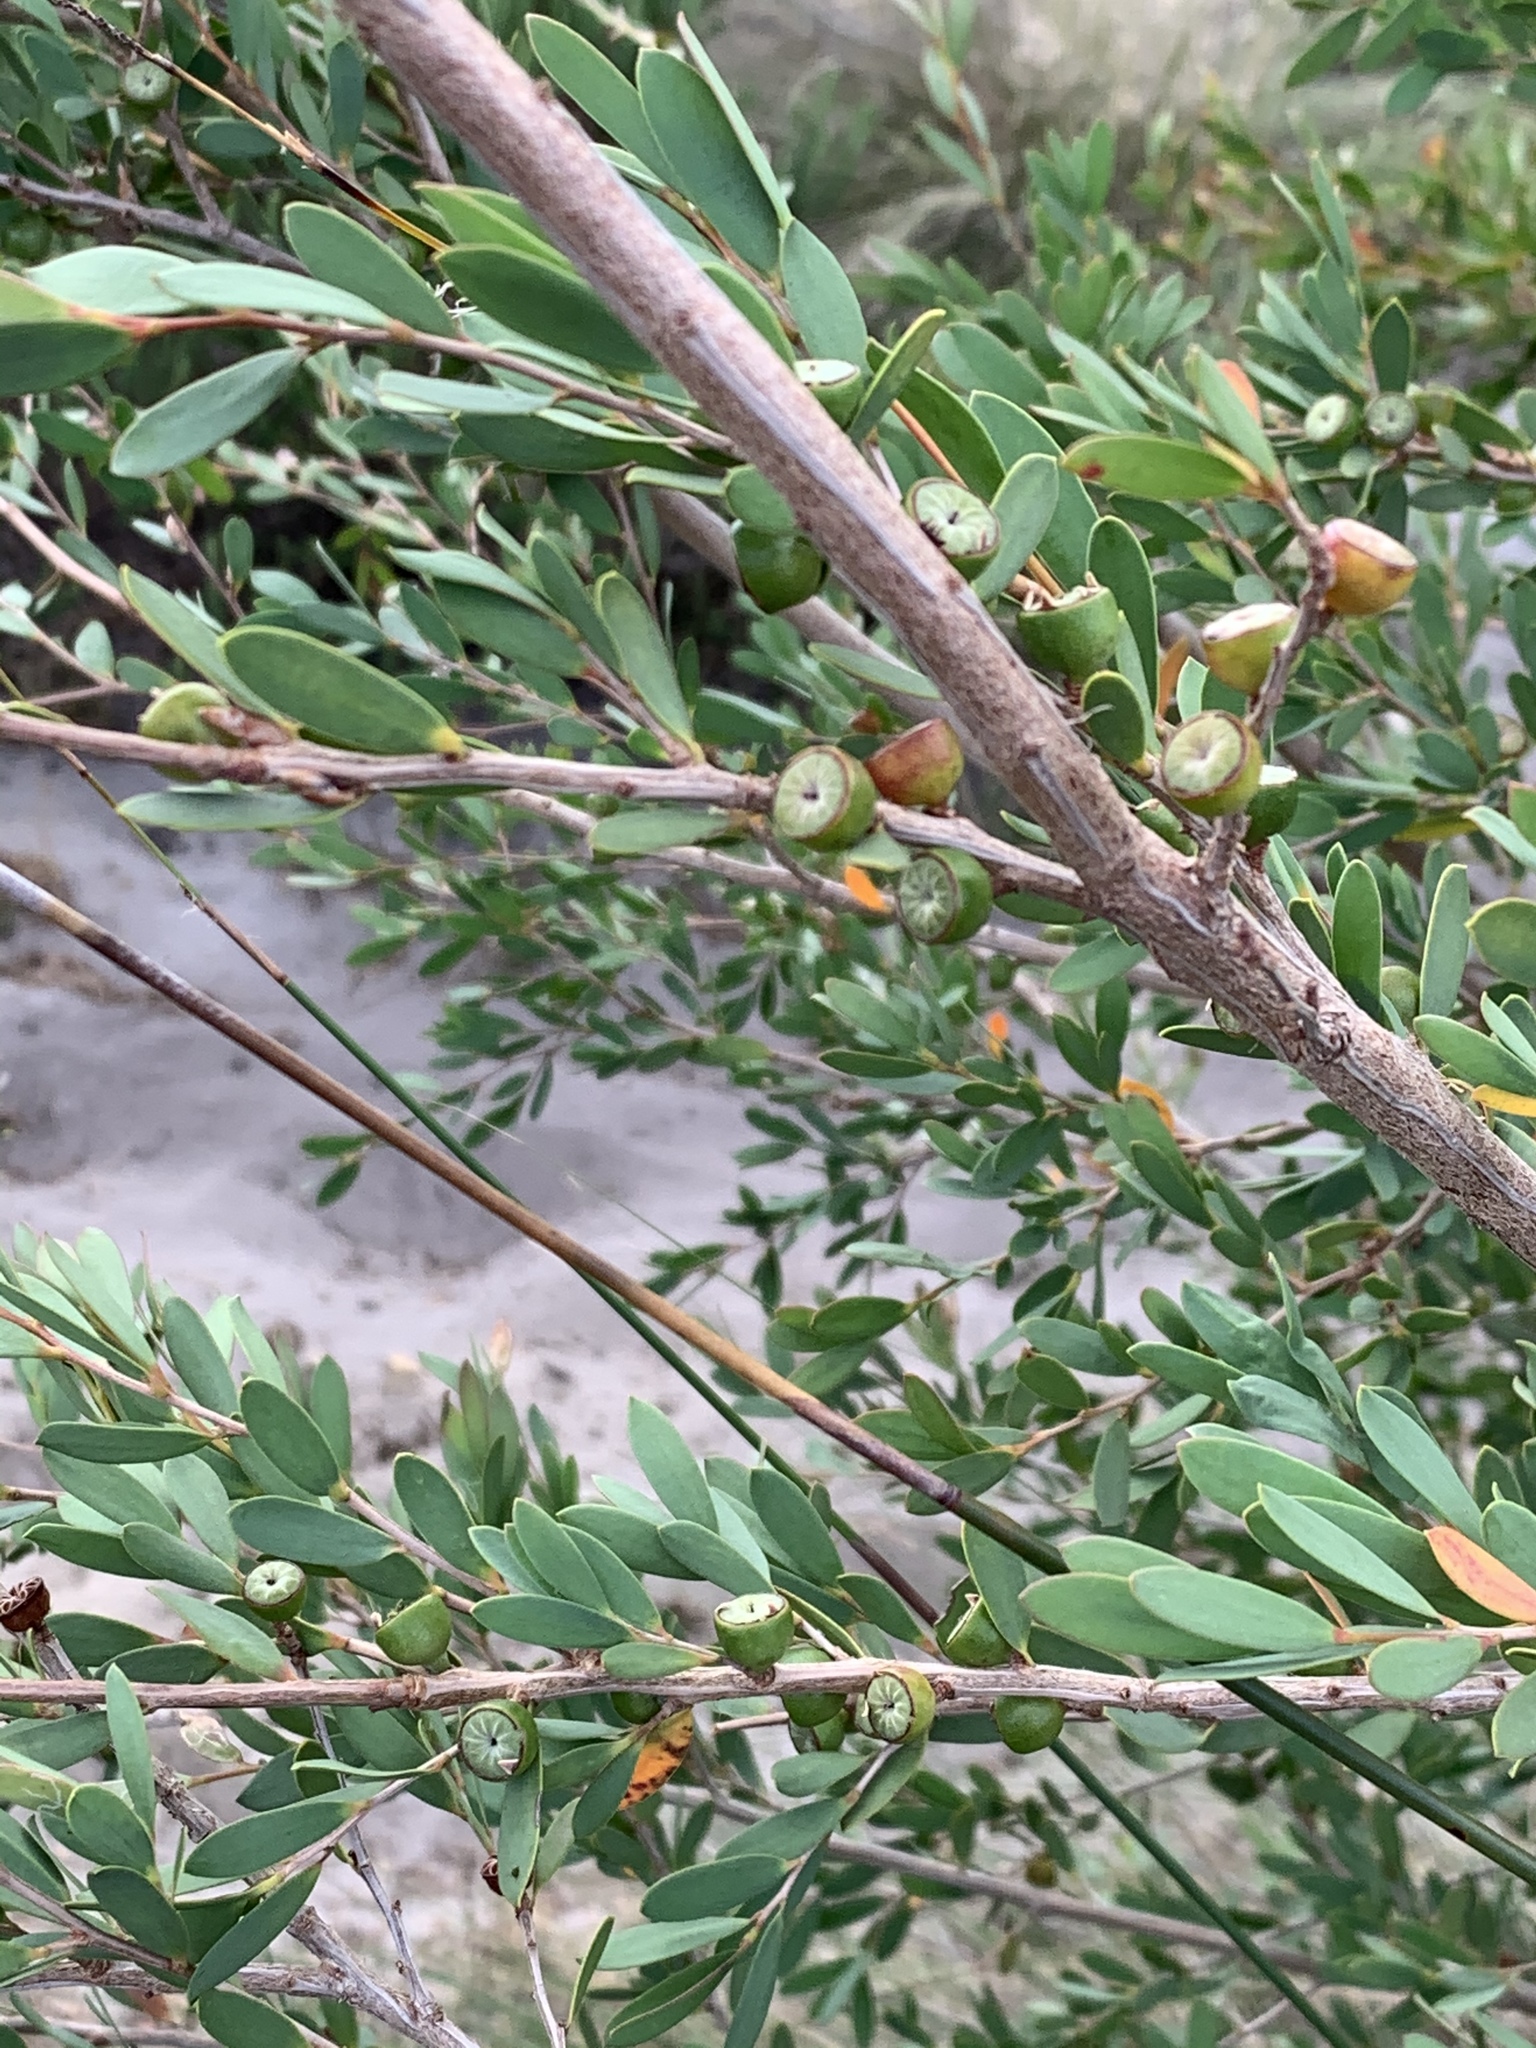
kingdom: Plantae
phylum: Tracheophyta
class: Magnoliopsida
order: Myrtales
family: Myrtaceae
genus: Leptospermum
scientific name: Leptospermum laevigatum
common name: Australian teatree
